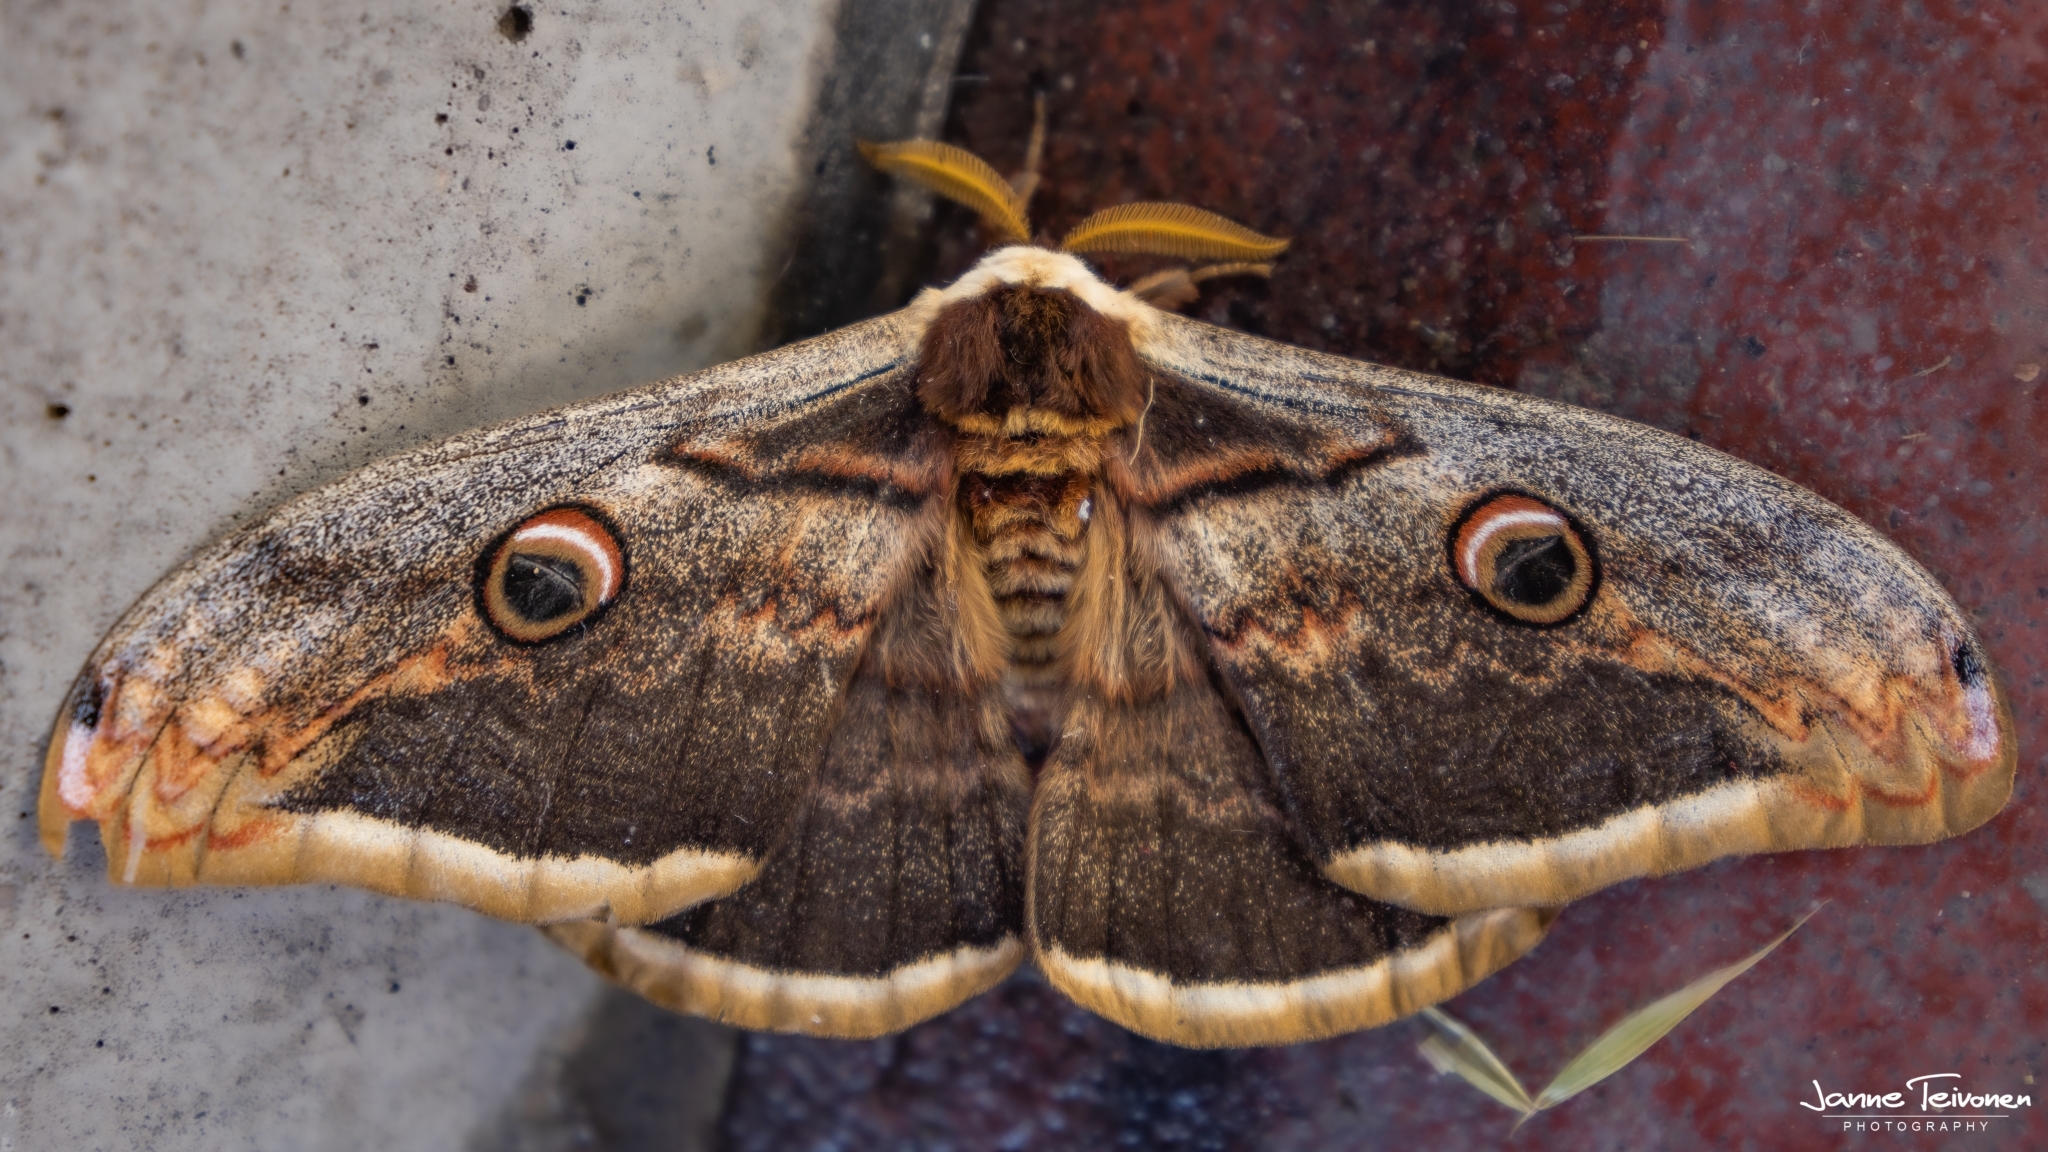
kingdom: Animalia
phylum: Arthropoda
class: Insecta
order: Lepidoptera
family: Saturniidae
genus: Saturnia
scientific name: Saturnia pyri
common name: Great peacock moth
